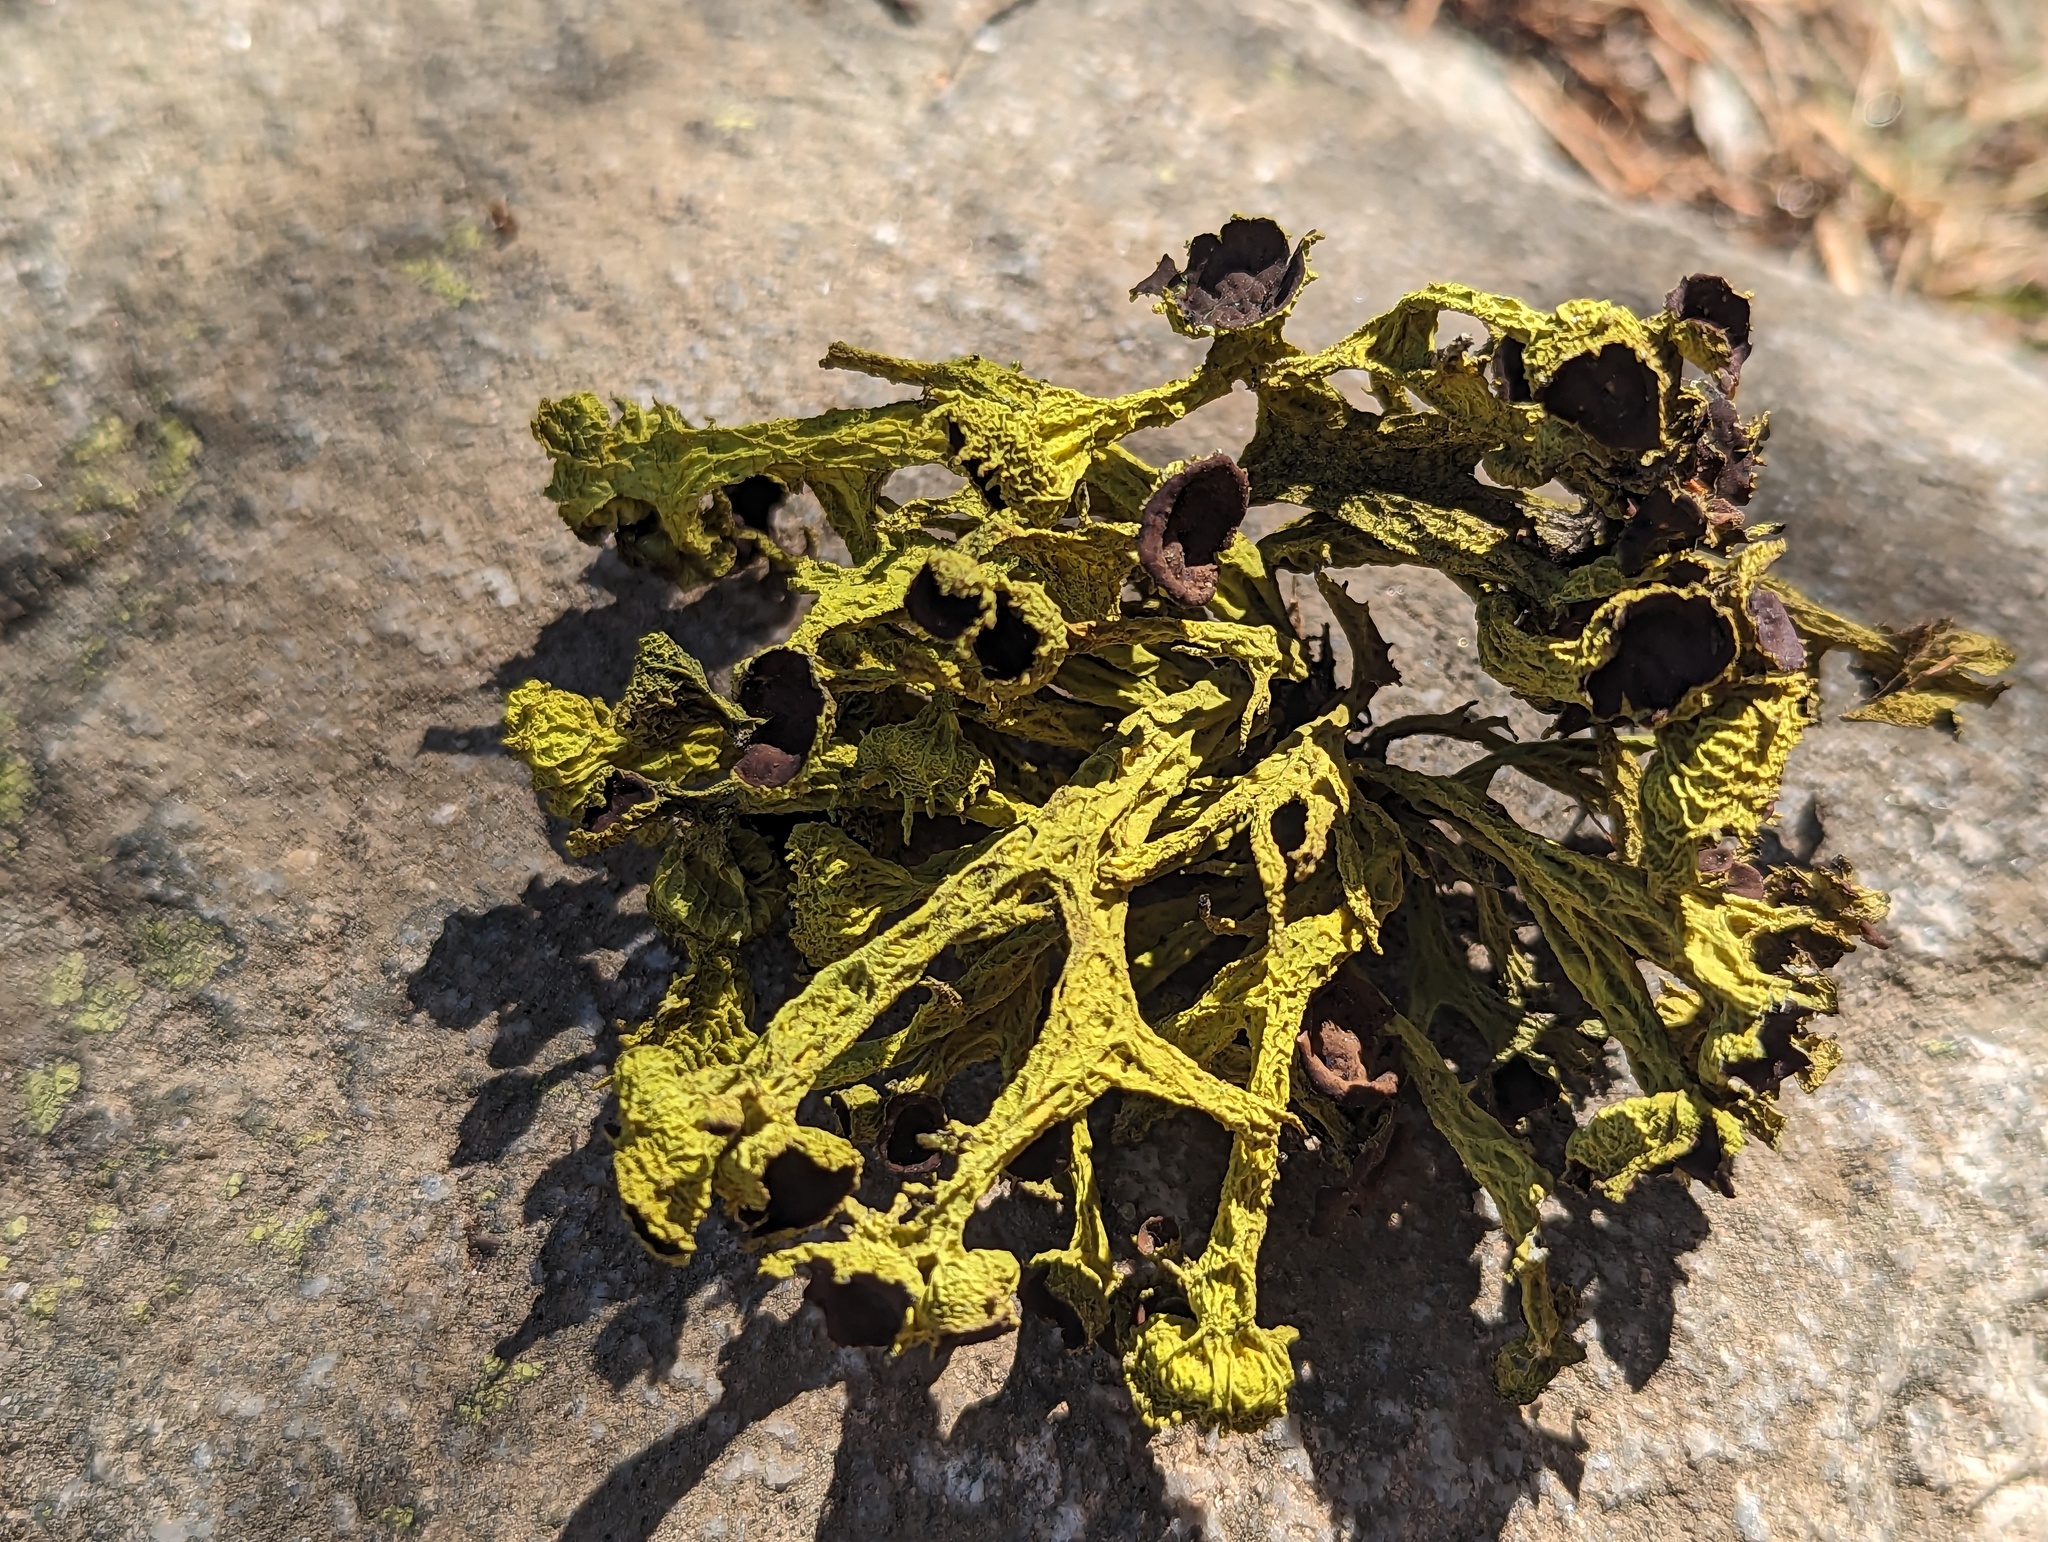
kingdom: Fungi
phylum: Ascomycota
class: Lecanoromycetes
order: Lecanorales
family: Parmeliaceae
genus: Letharia
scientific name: Letharia columbiana
